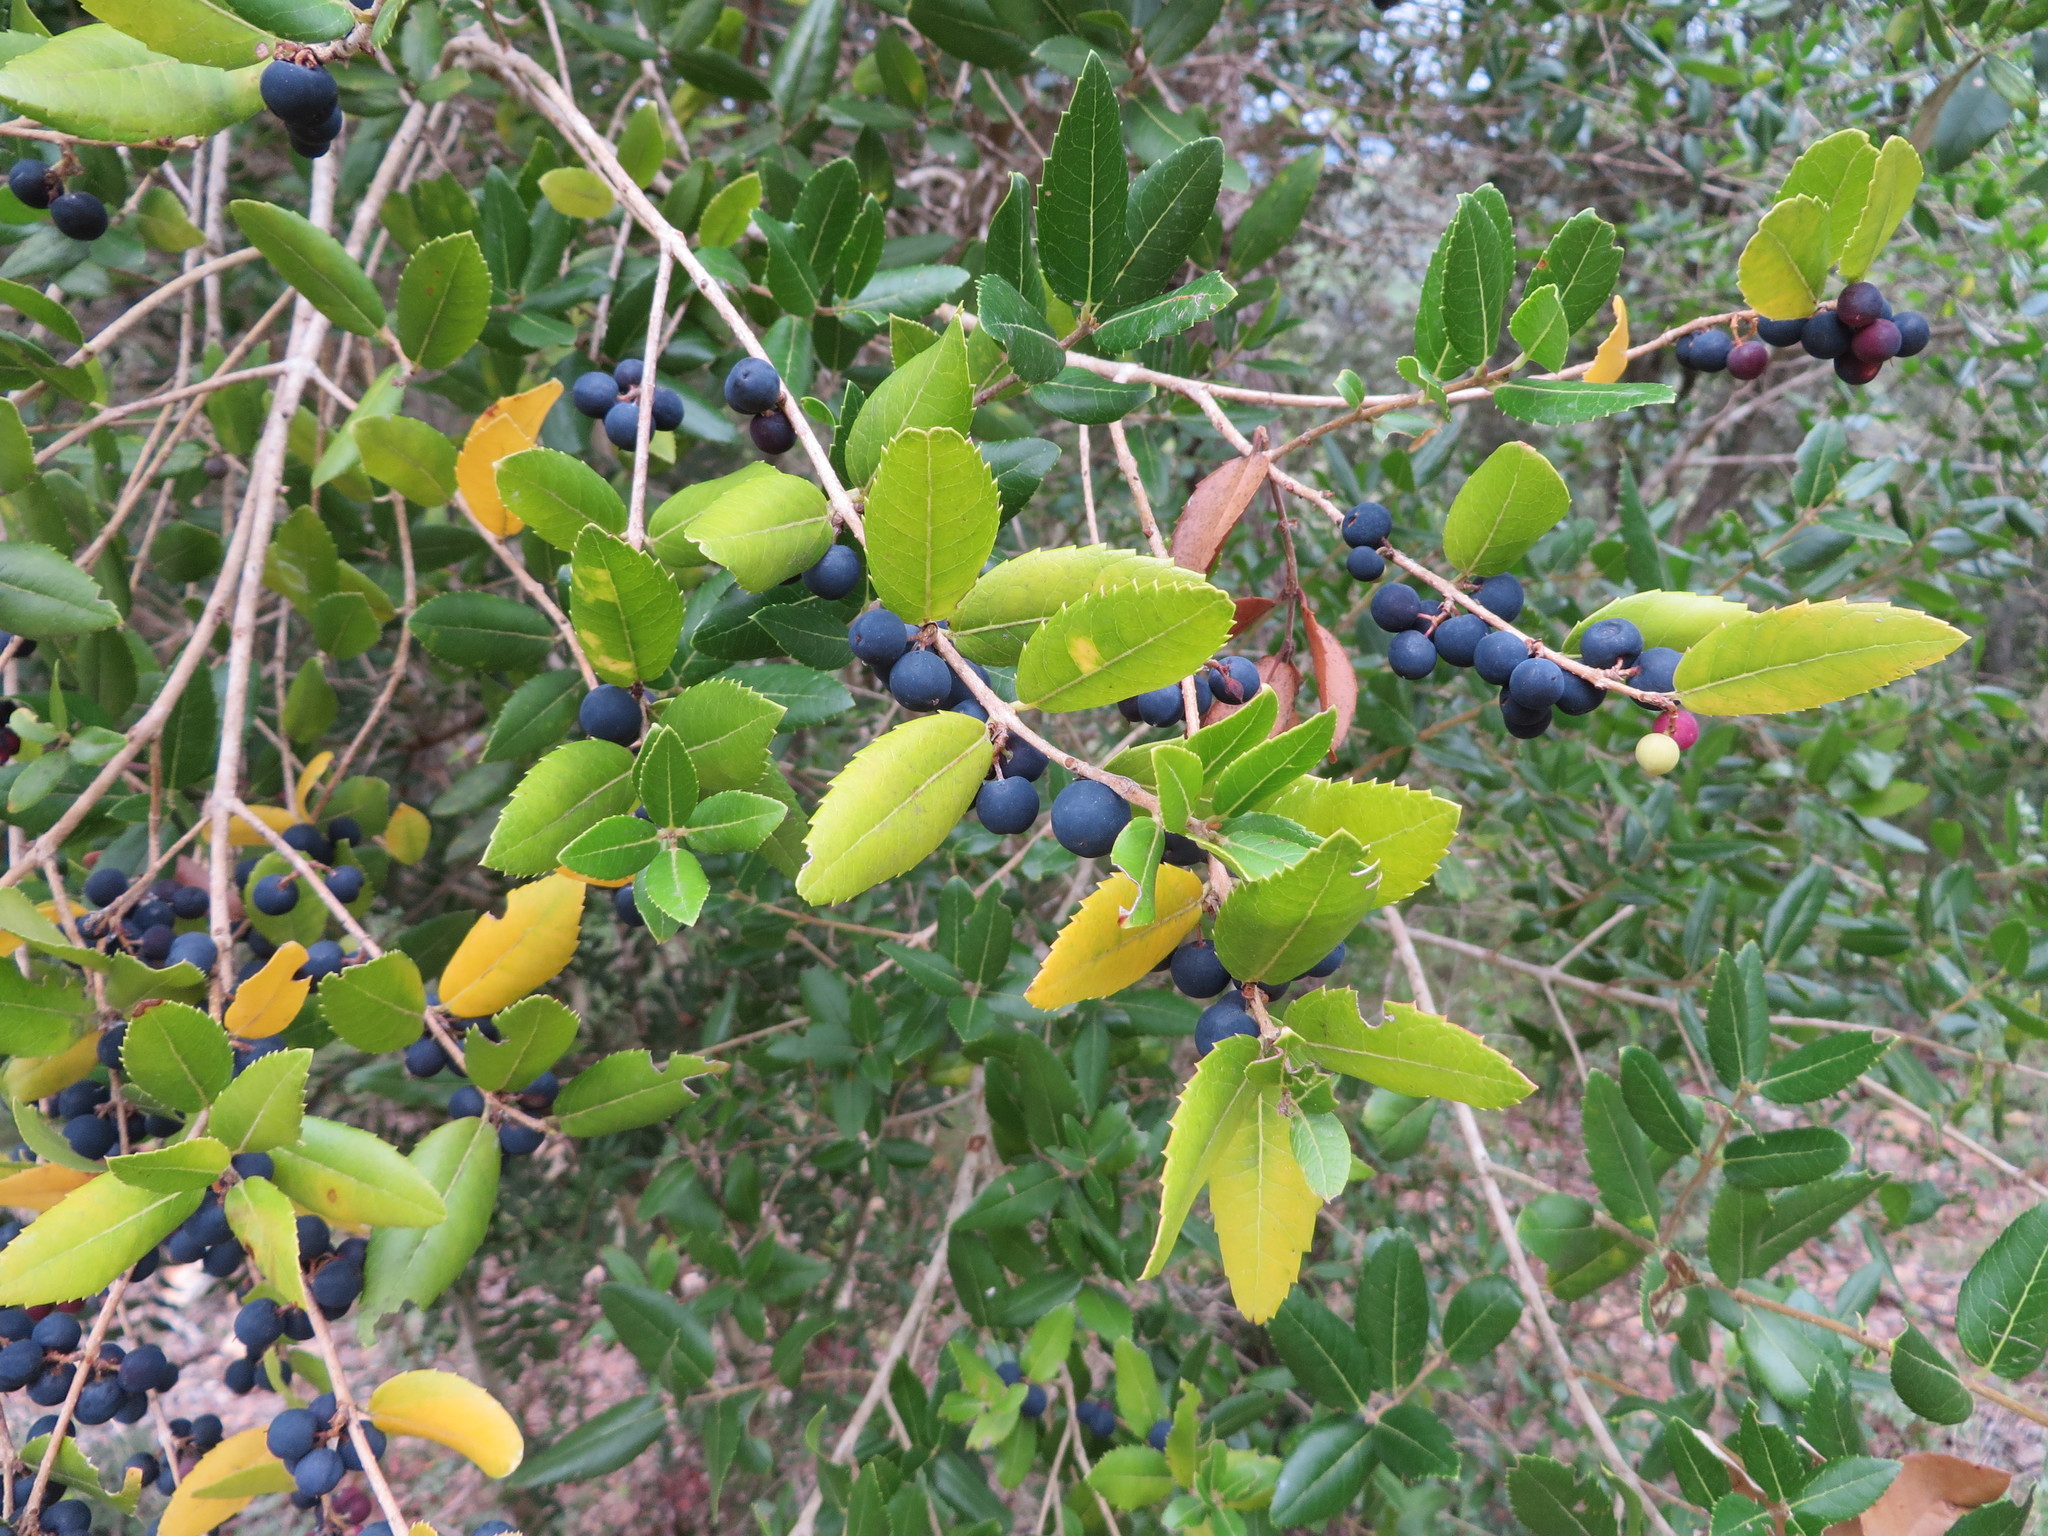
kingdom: Plantae
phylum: Tracheophyta
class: Magnoliopsida
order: Lamiales
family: Oleaceae
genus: Phillyrea
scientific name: Phillyrea latifolia
